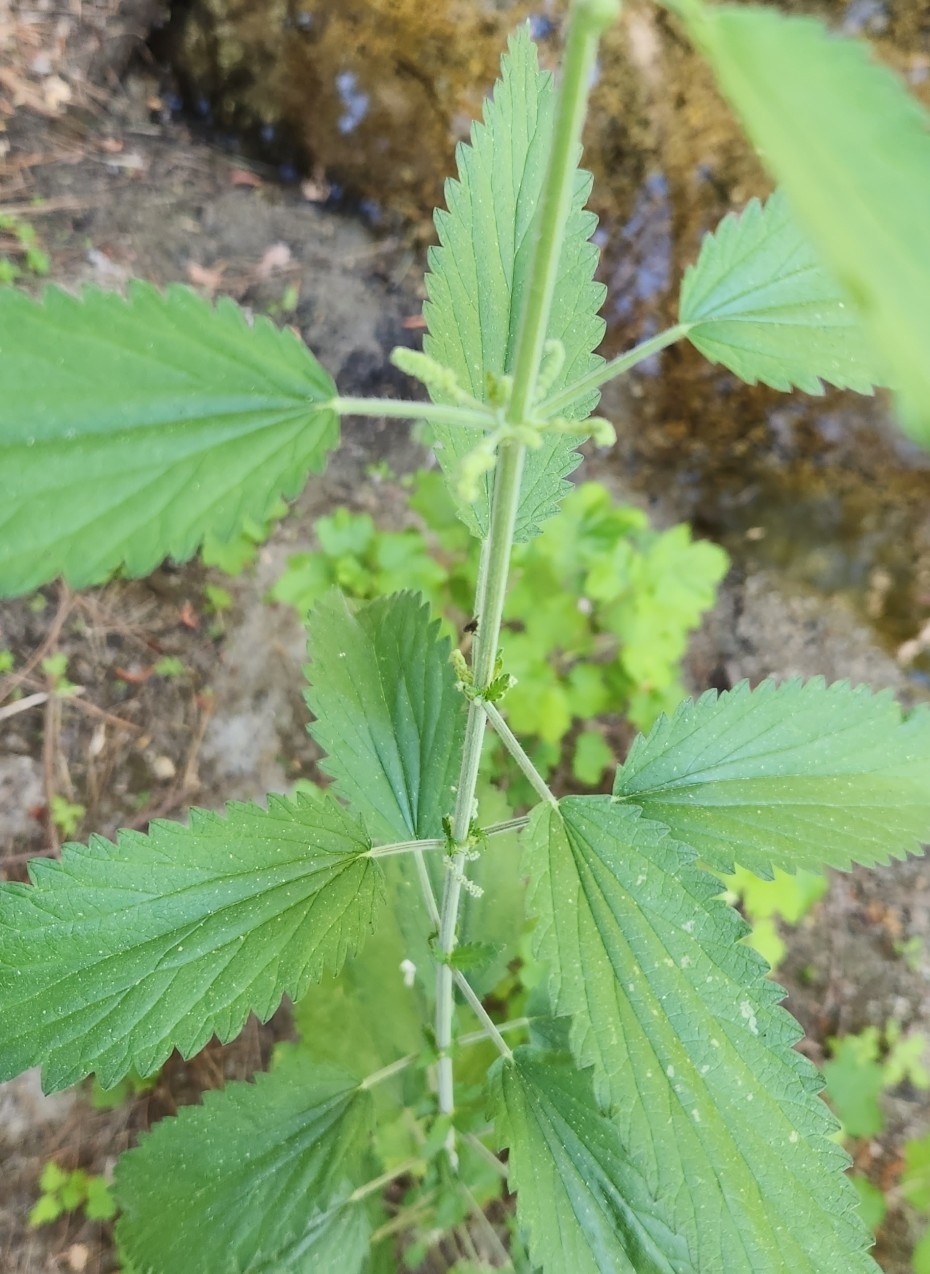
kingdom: Plantae
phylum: Tracheophyta
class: Magnoliopsida
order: Rosales
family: Urticaceae
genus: Urtica
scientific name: Urtica gracilis
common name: Slender stinging nettle
